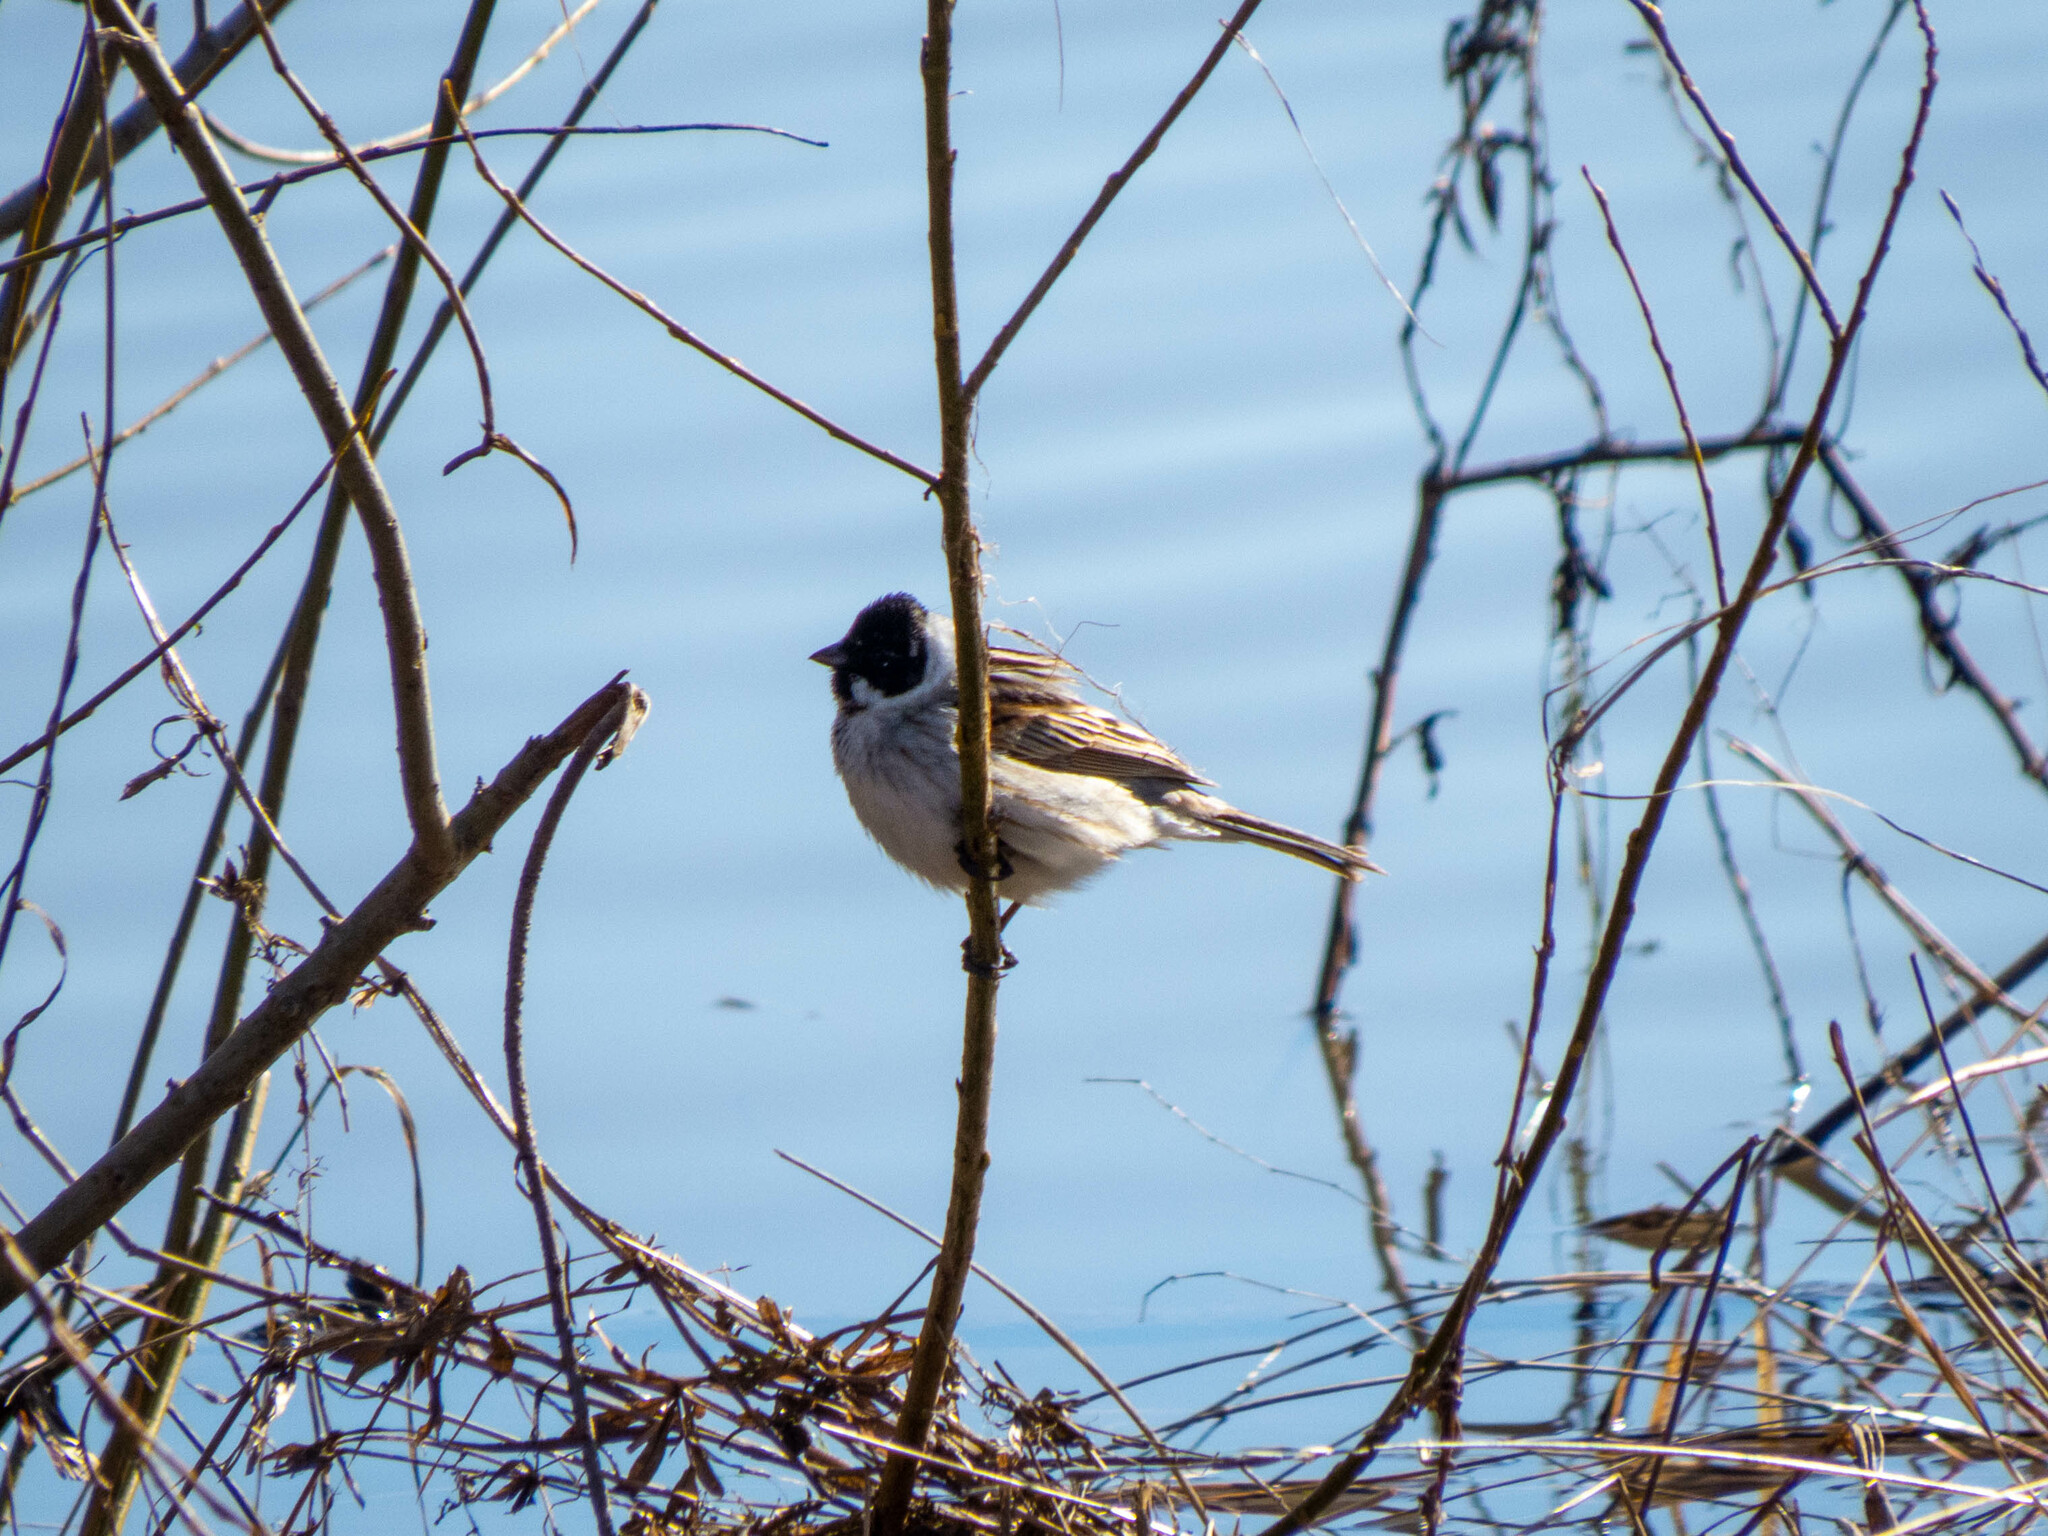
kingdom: Animalia
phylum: Chordata
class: Aves
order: Passeriformes
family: Emberizidae
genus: Emberiza
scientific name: Emberiza schoeniclus
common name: Reed bunting
